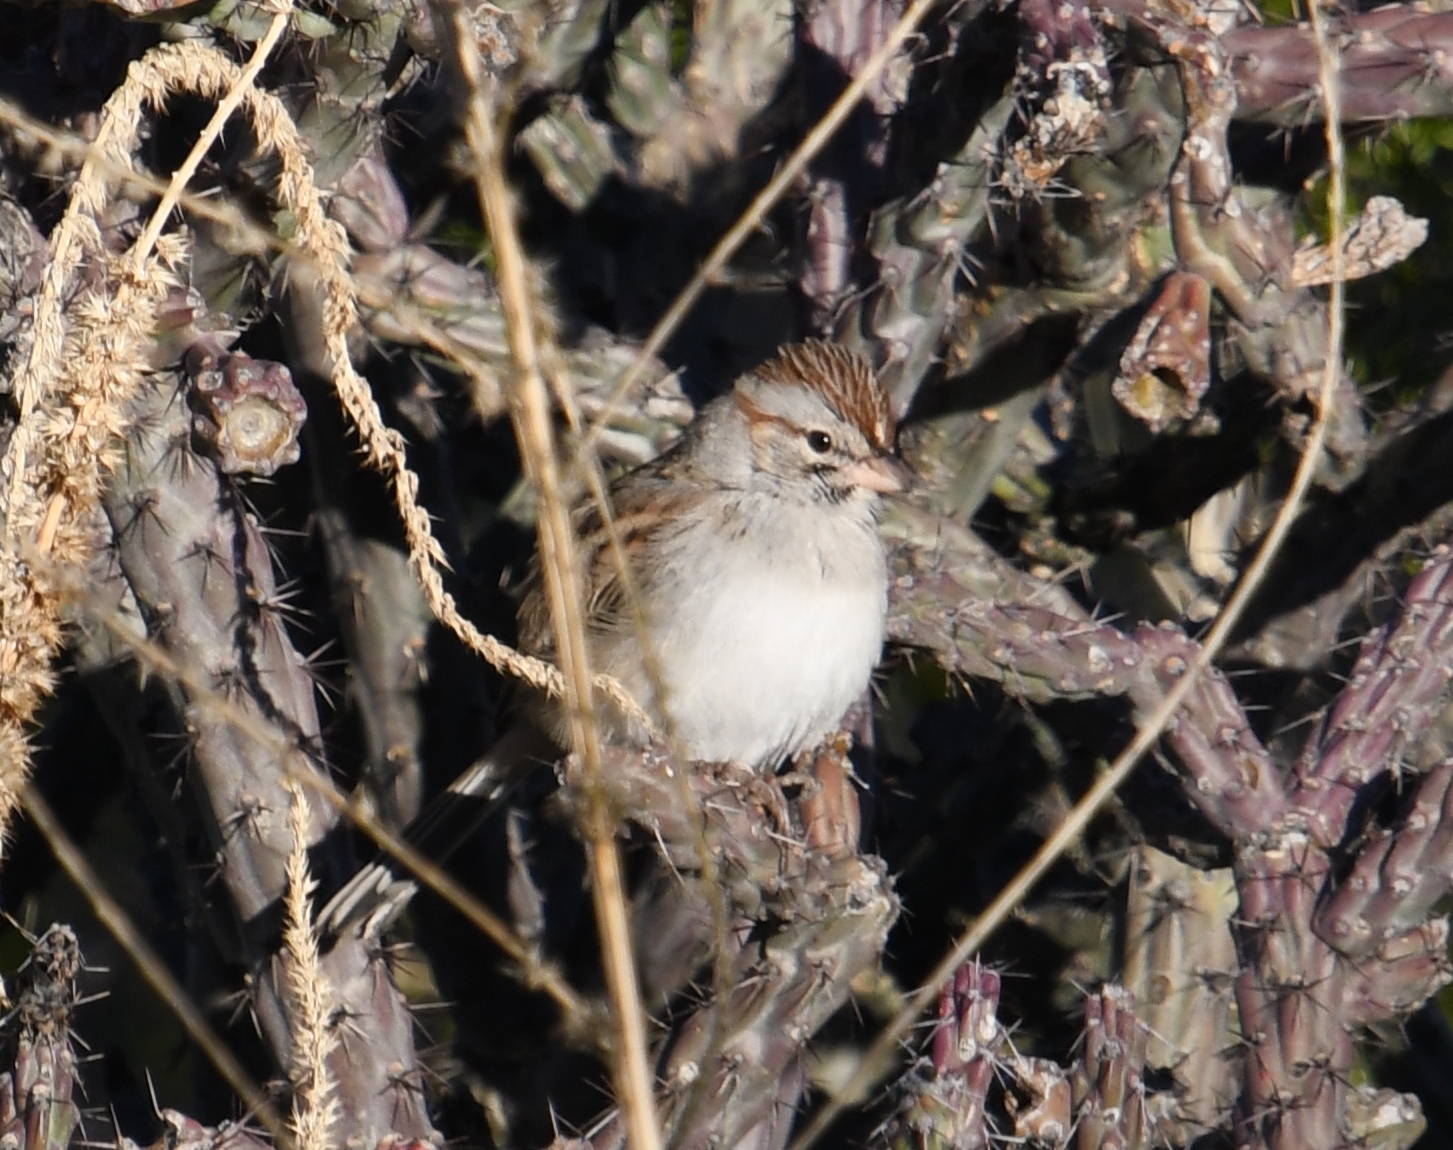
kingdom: Animalia
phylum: Chordata
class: Aves
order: Passeriformes
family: Passerellidae
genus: Peucaea
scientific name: Peucaea carpalis
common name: Rufous-winged sparrow
